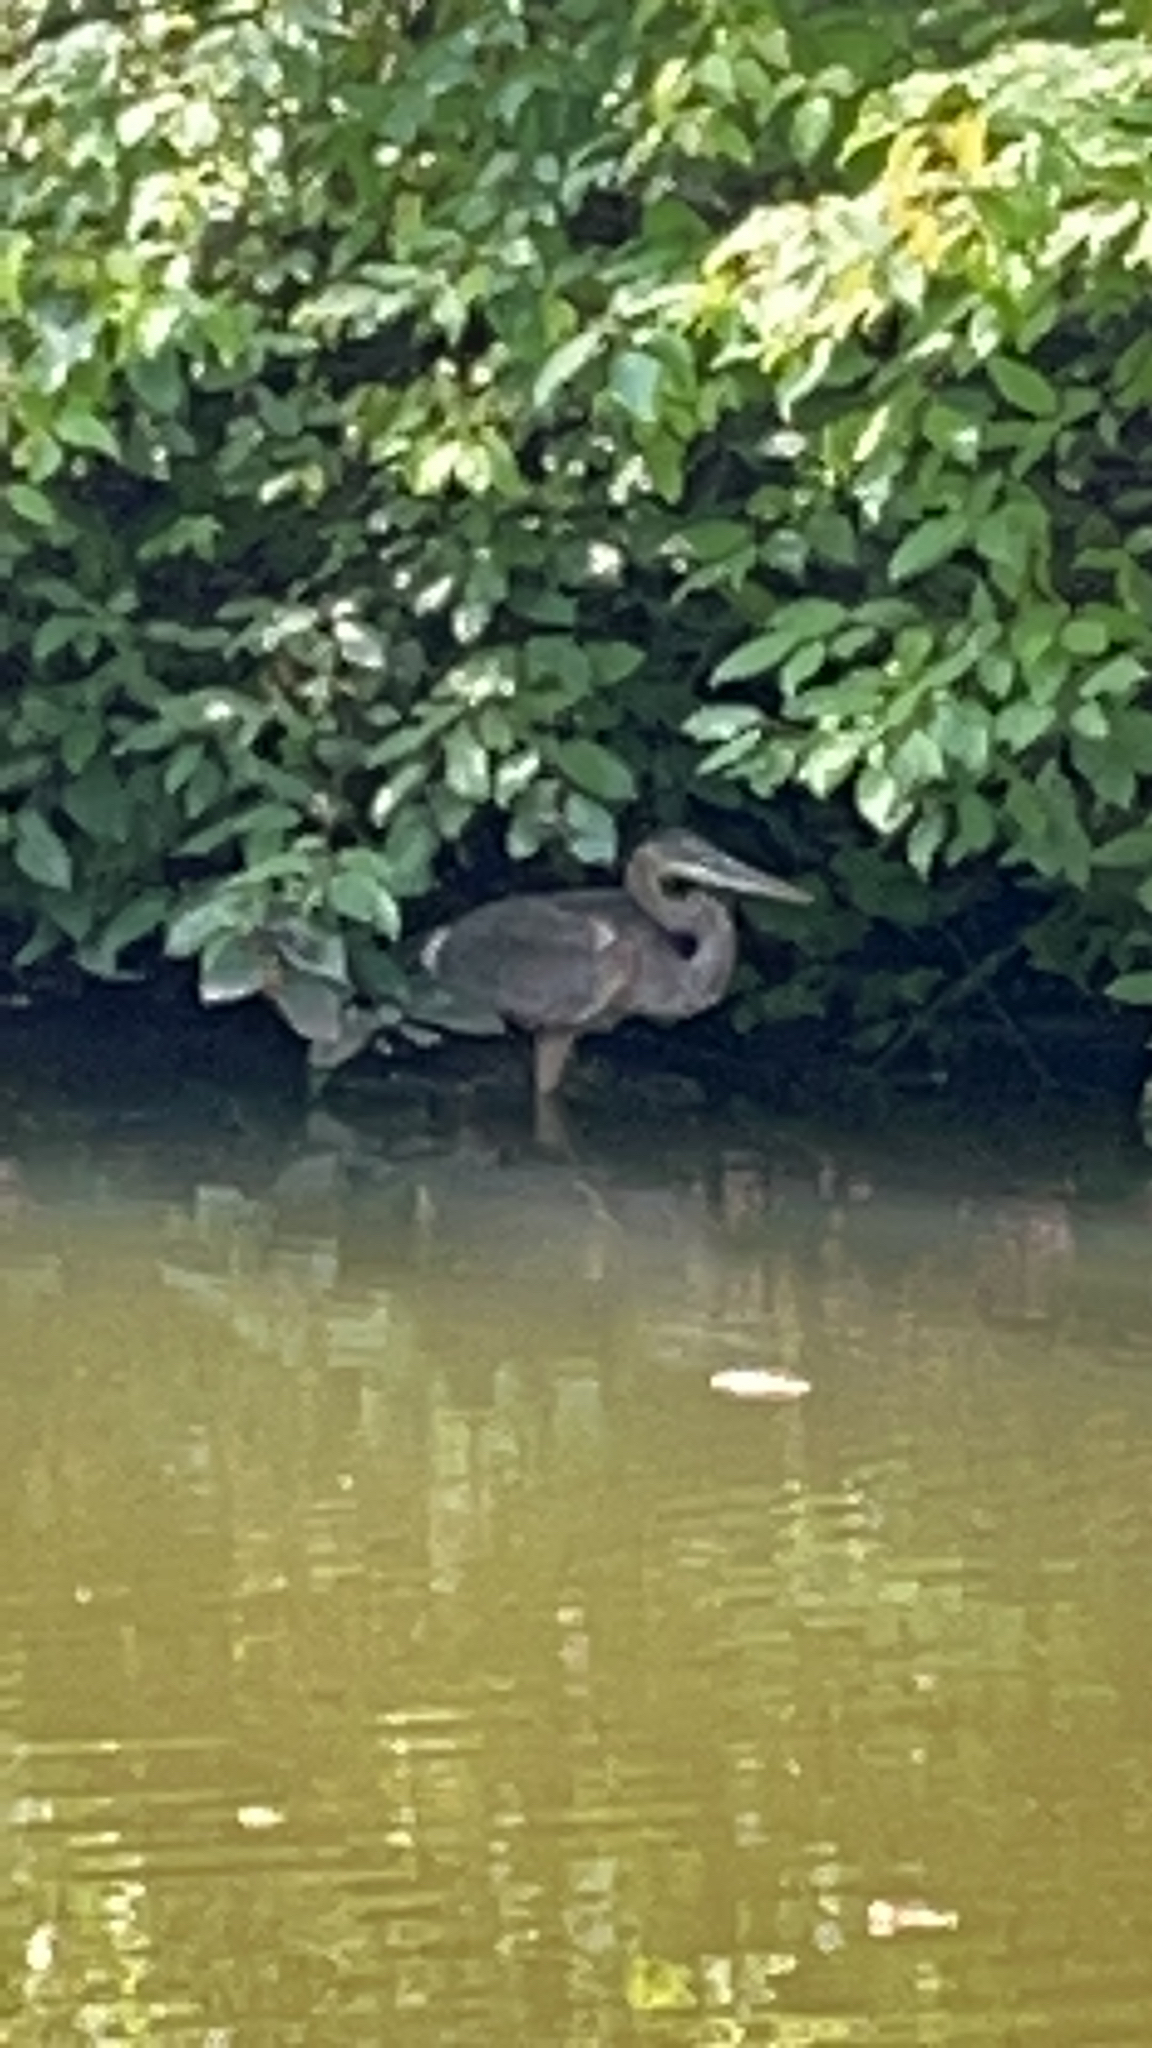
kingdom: Animalia
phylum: Chordata
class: Aves
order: Pelecaniformes
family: Ardeidae
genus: Ardea
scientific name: Ardea herodias
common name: Great blue heron
